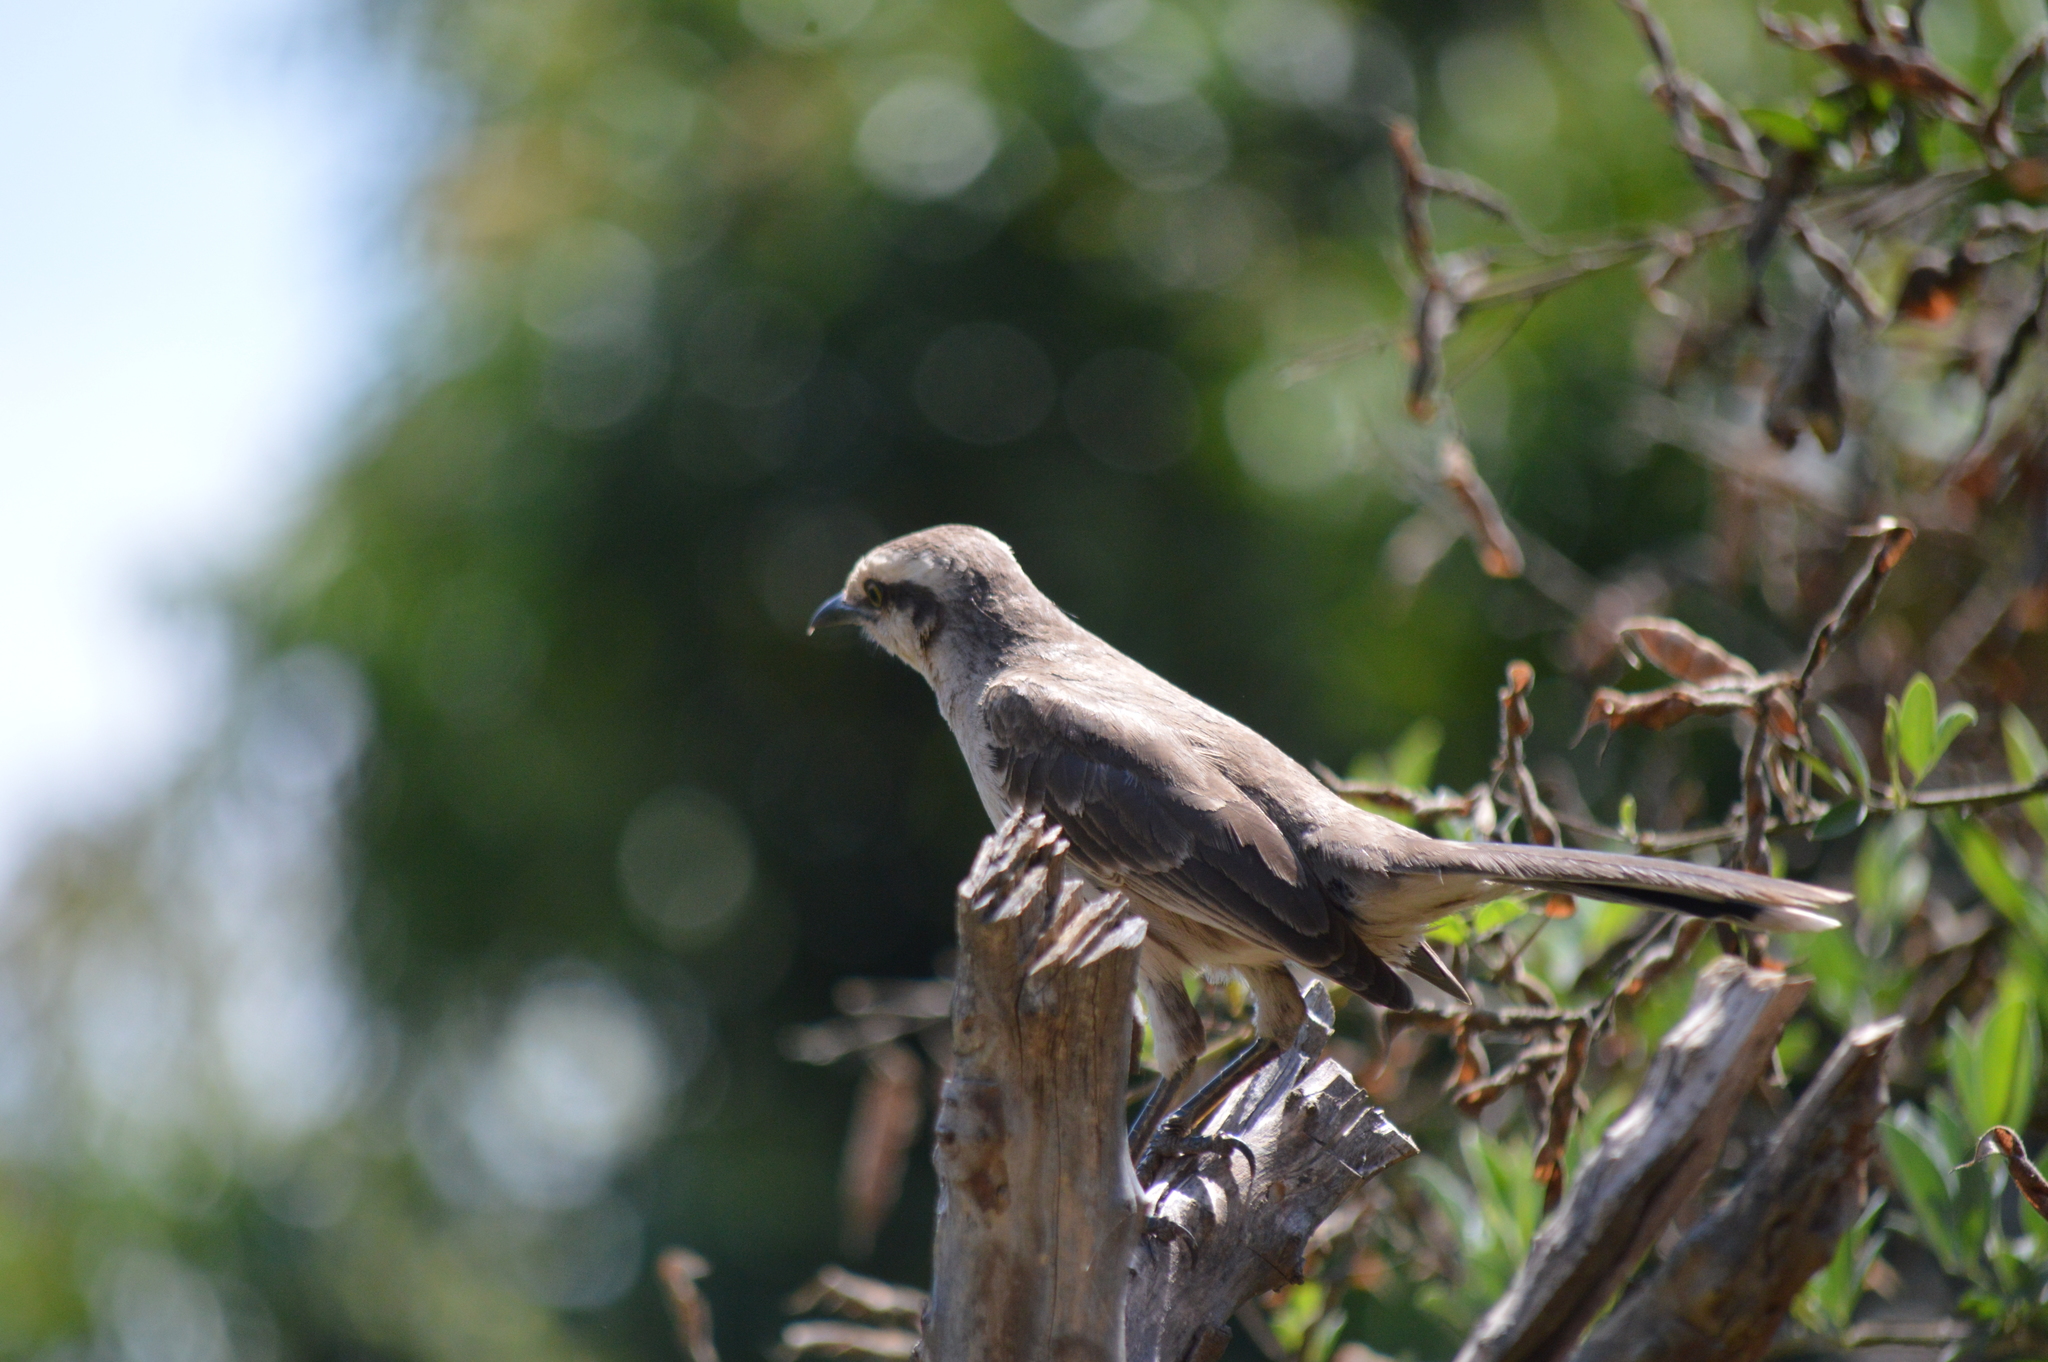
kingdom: Animalia
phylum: Chordata
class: Aves
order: Passeriformes
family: Mimidae
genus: Mimus
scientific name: Mimus saturninus
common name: Chalk-browed mockingbird
